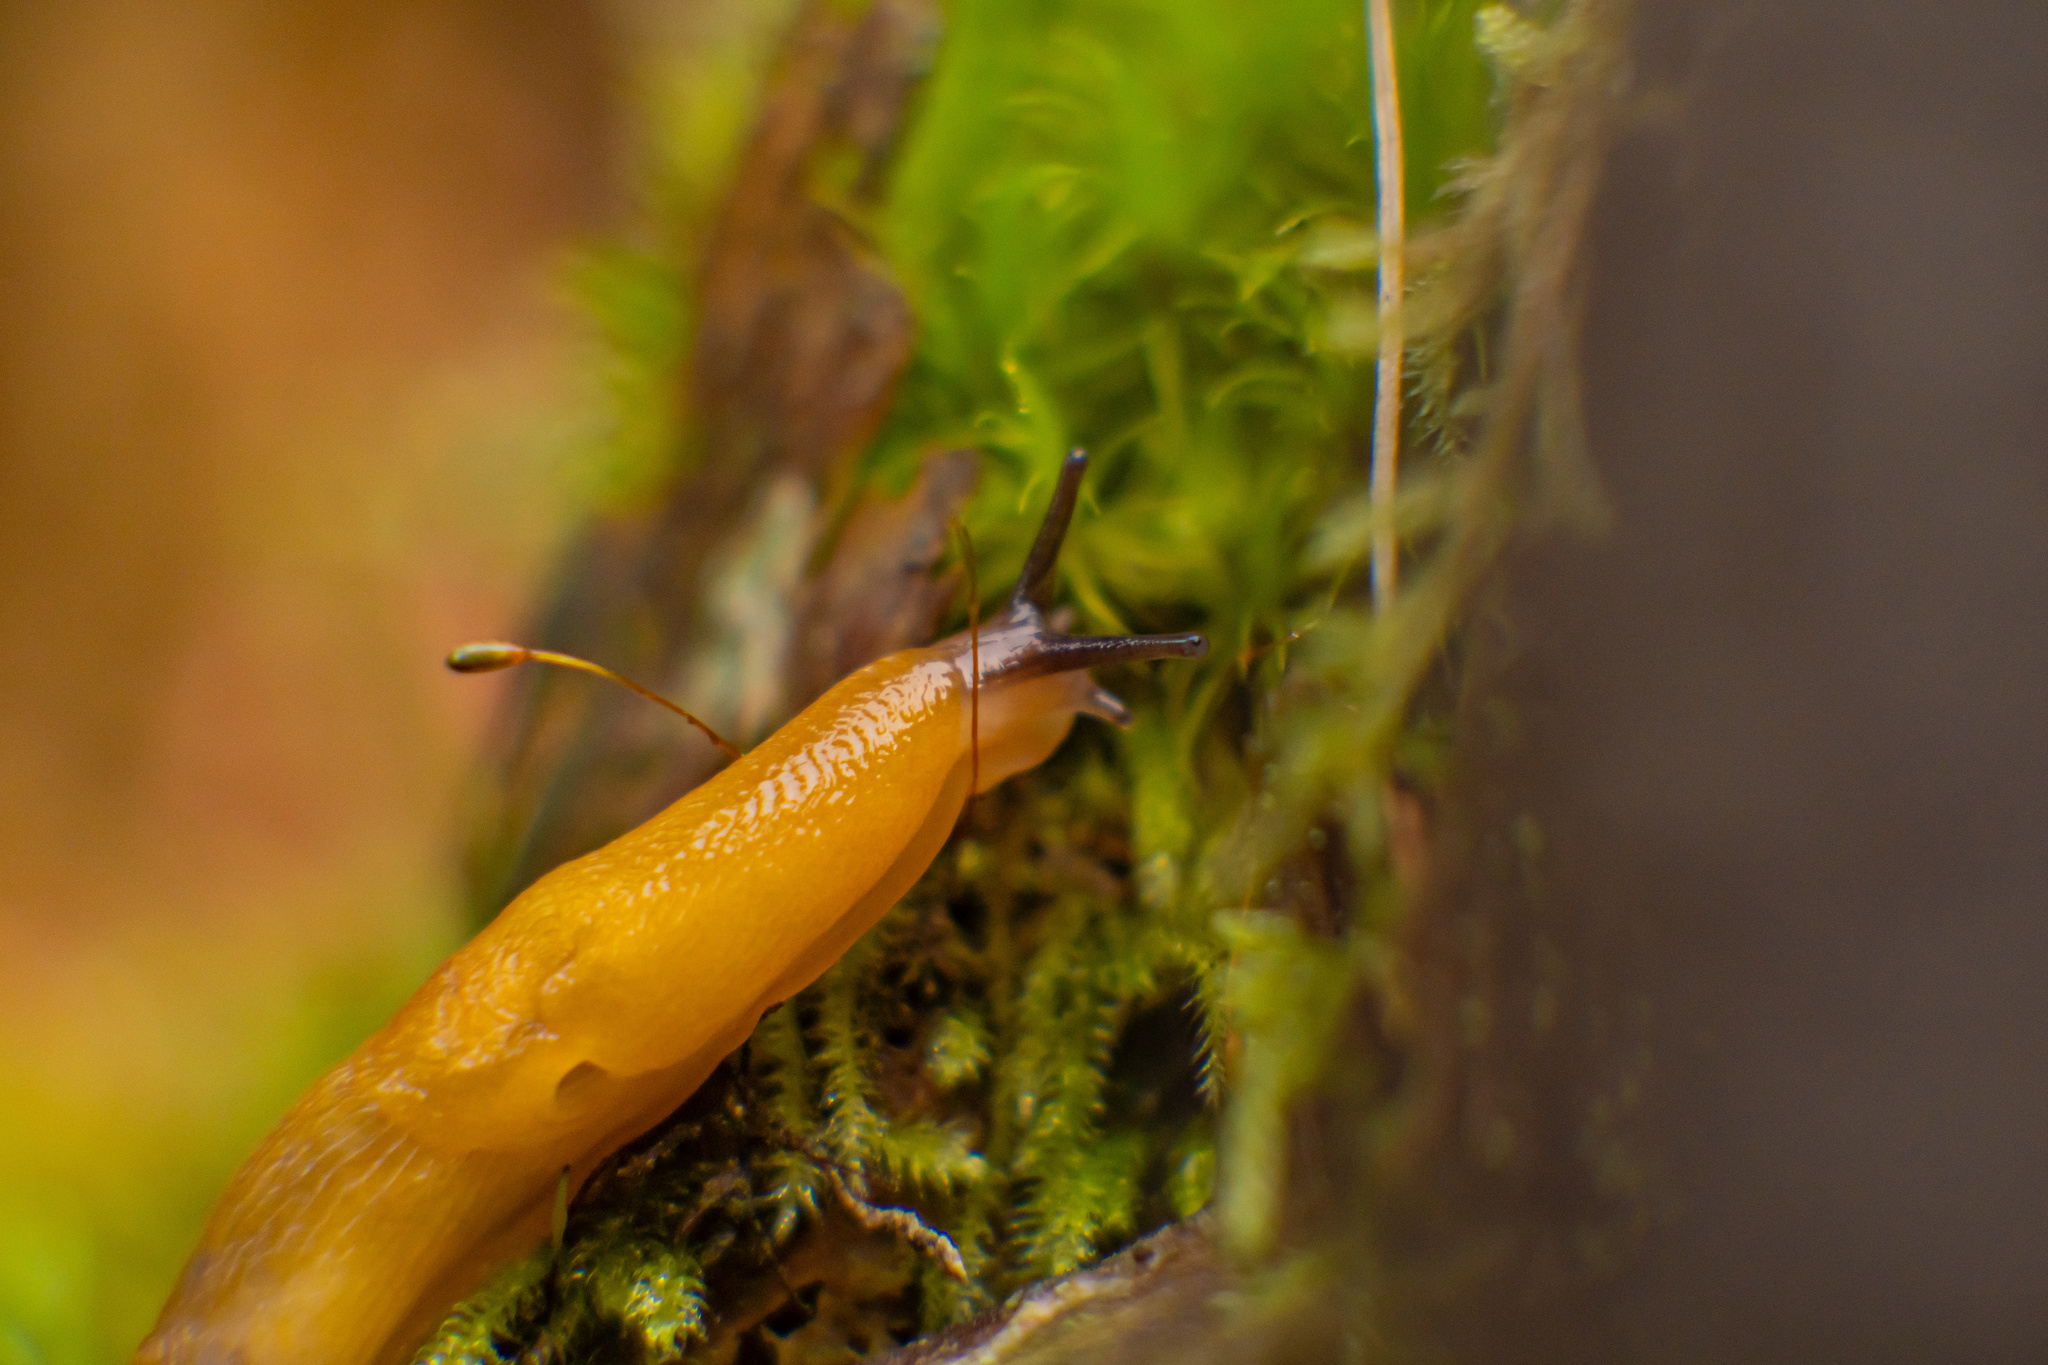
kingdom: Animalia
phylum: Mollusca
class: Gastropoda
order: Stylommatophora
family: Limacidae
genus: Malacolimax
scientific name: Malacolimax tenellus
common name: Lemon slug
